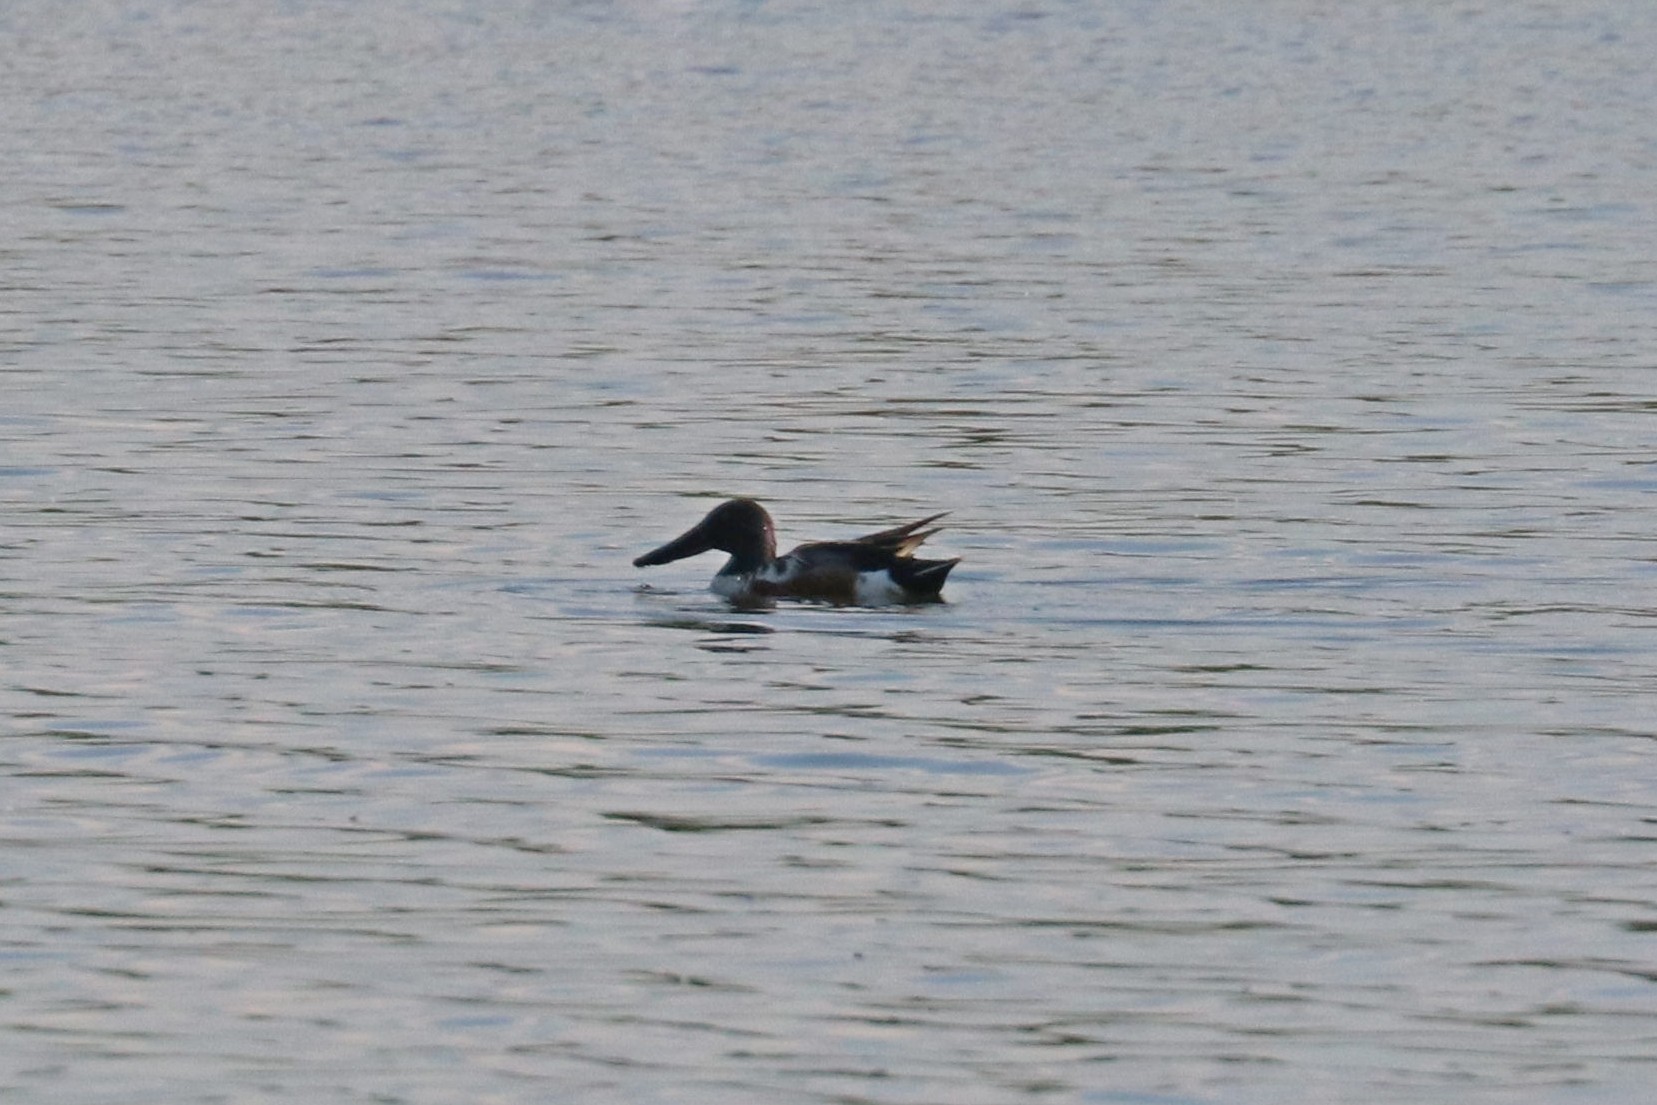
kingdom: Animalia
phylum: Chordata
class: Aves
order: Anseriformes
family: Anatidae
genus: Spatula
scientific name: Spatula clypeata
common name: Northern shoveler
